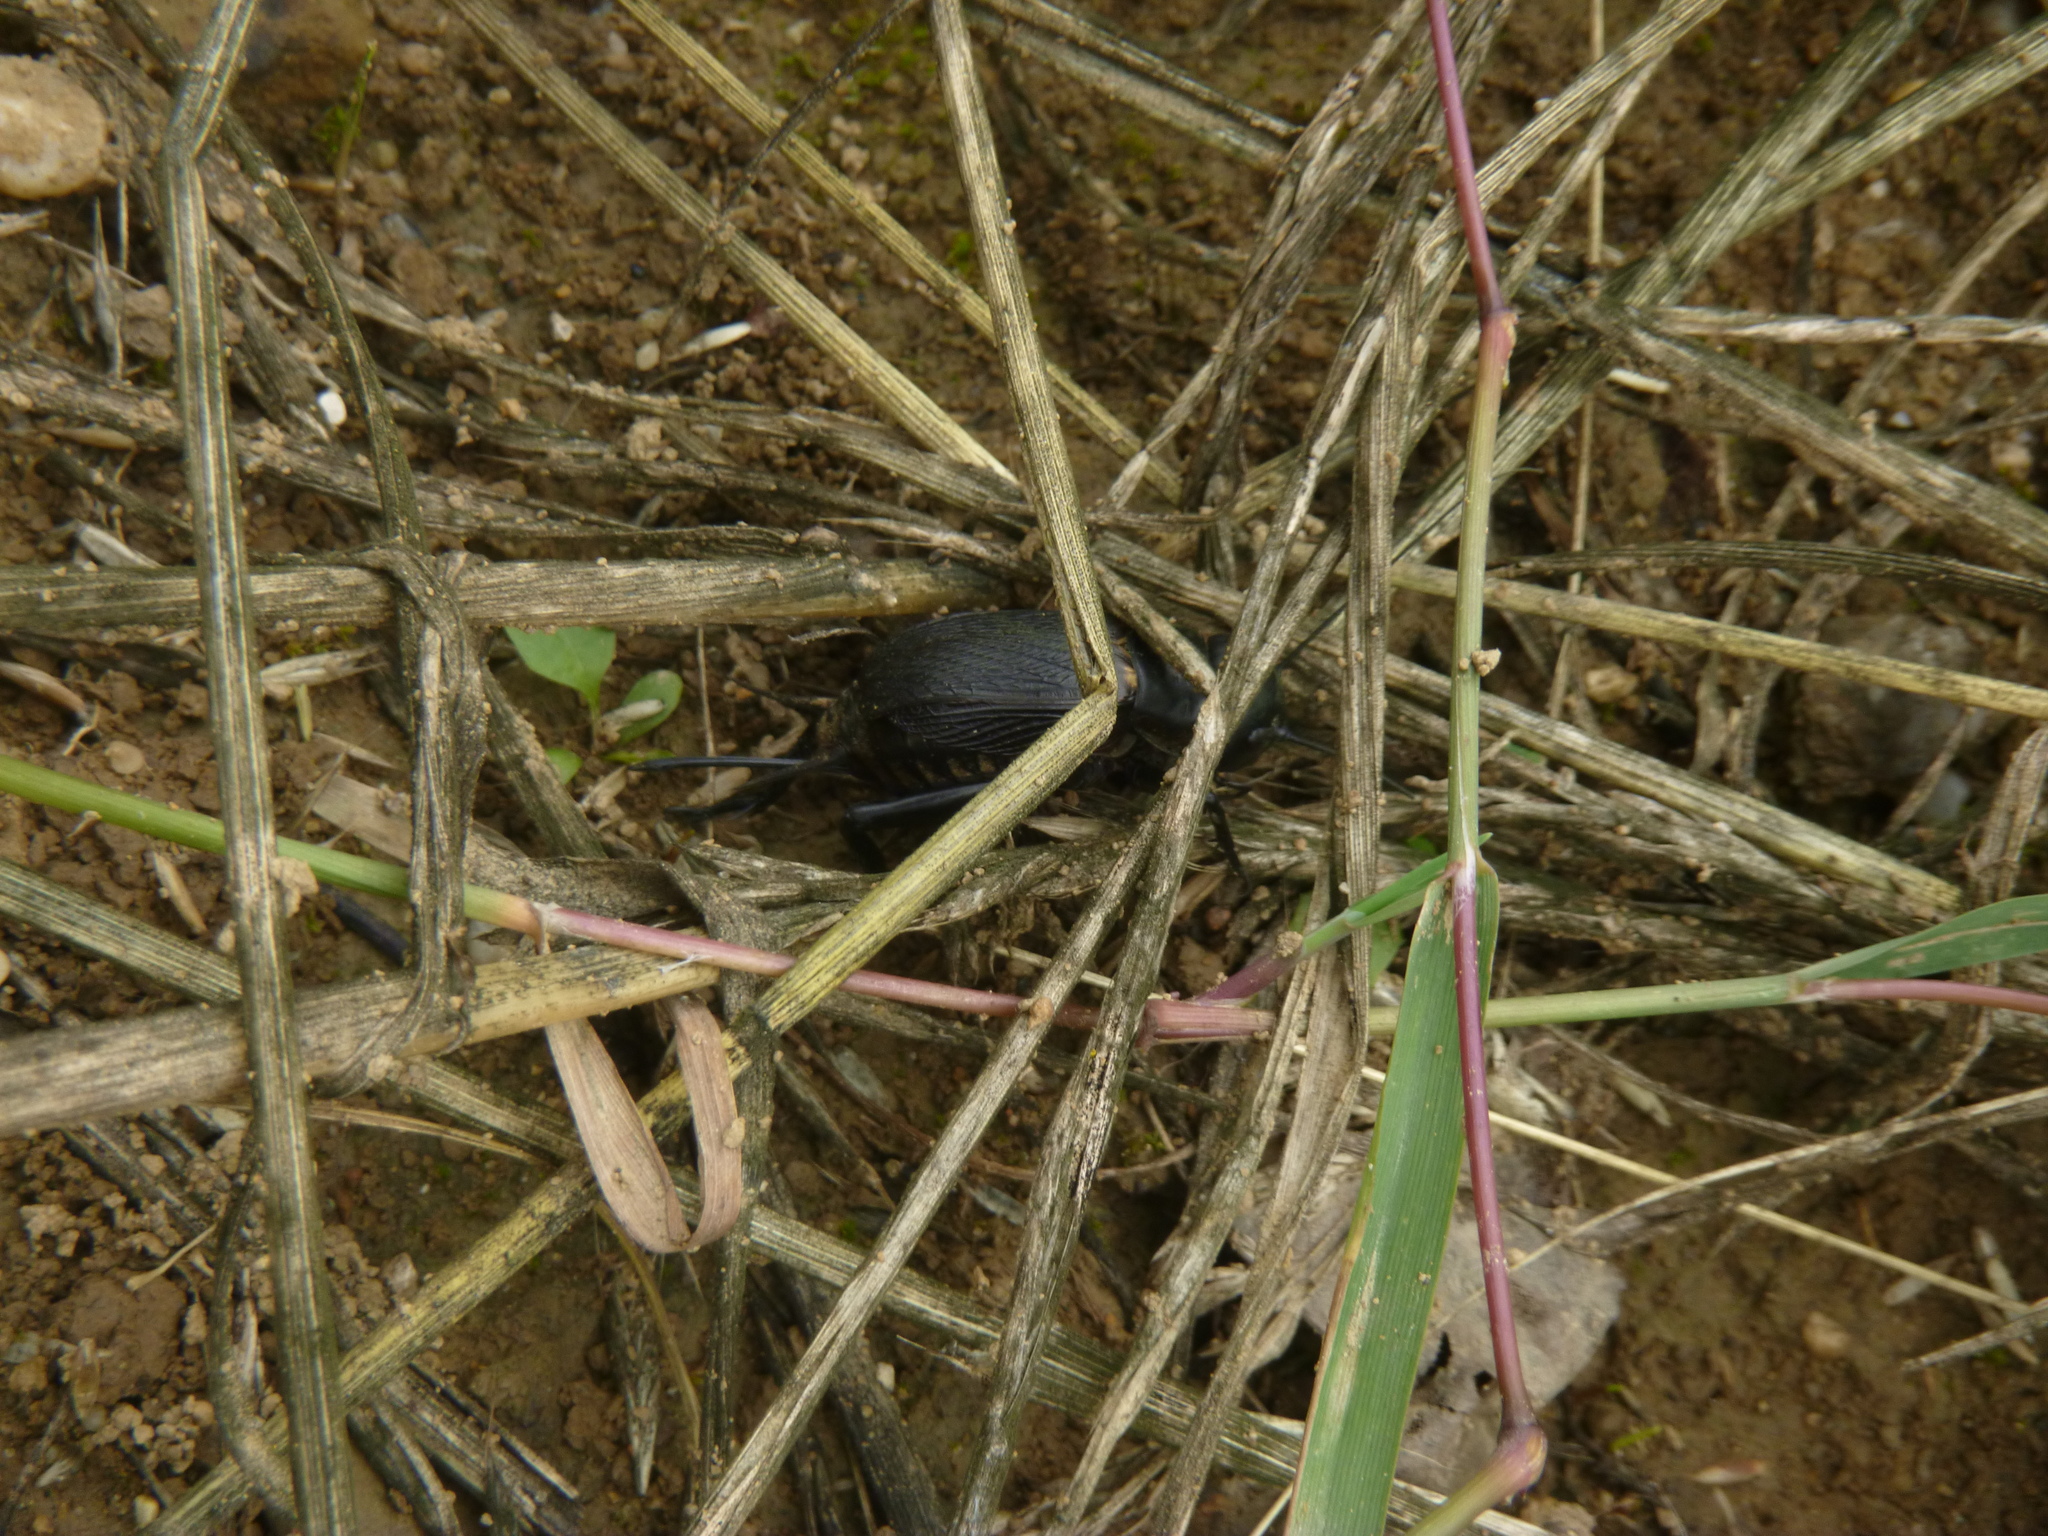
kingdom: Animalia
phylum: Arthropoda
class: Insecta
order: Orthoptera
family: Gryllidae
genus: Gryllus
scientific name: Gryllus campestris
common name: Field cricket
